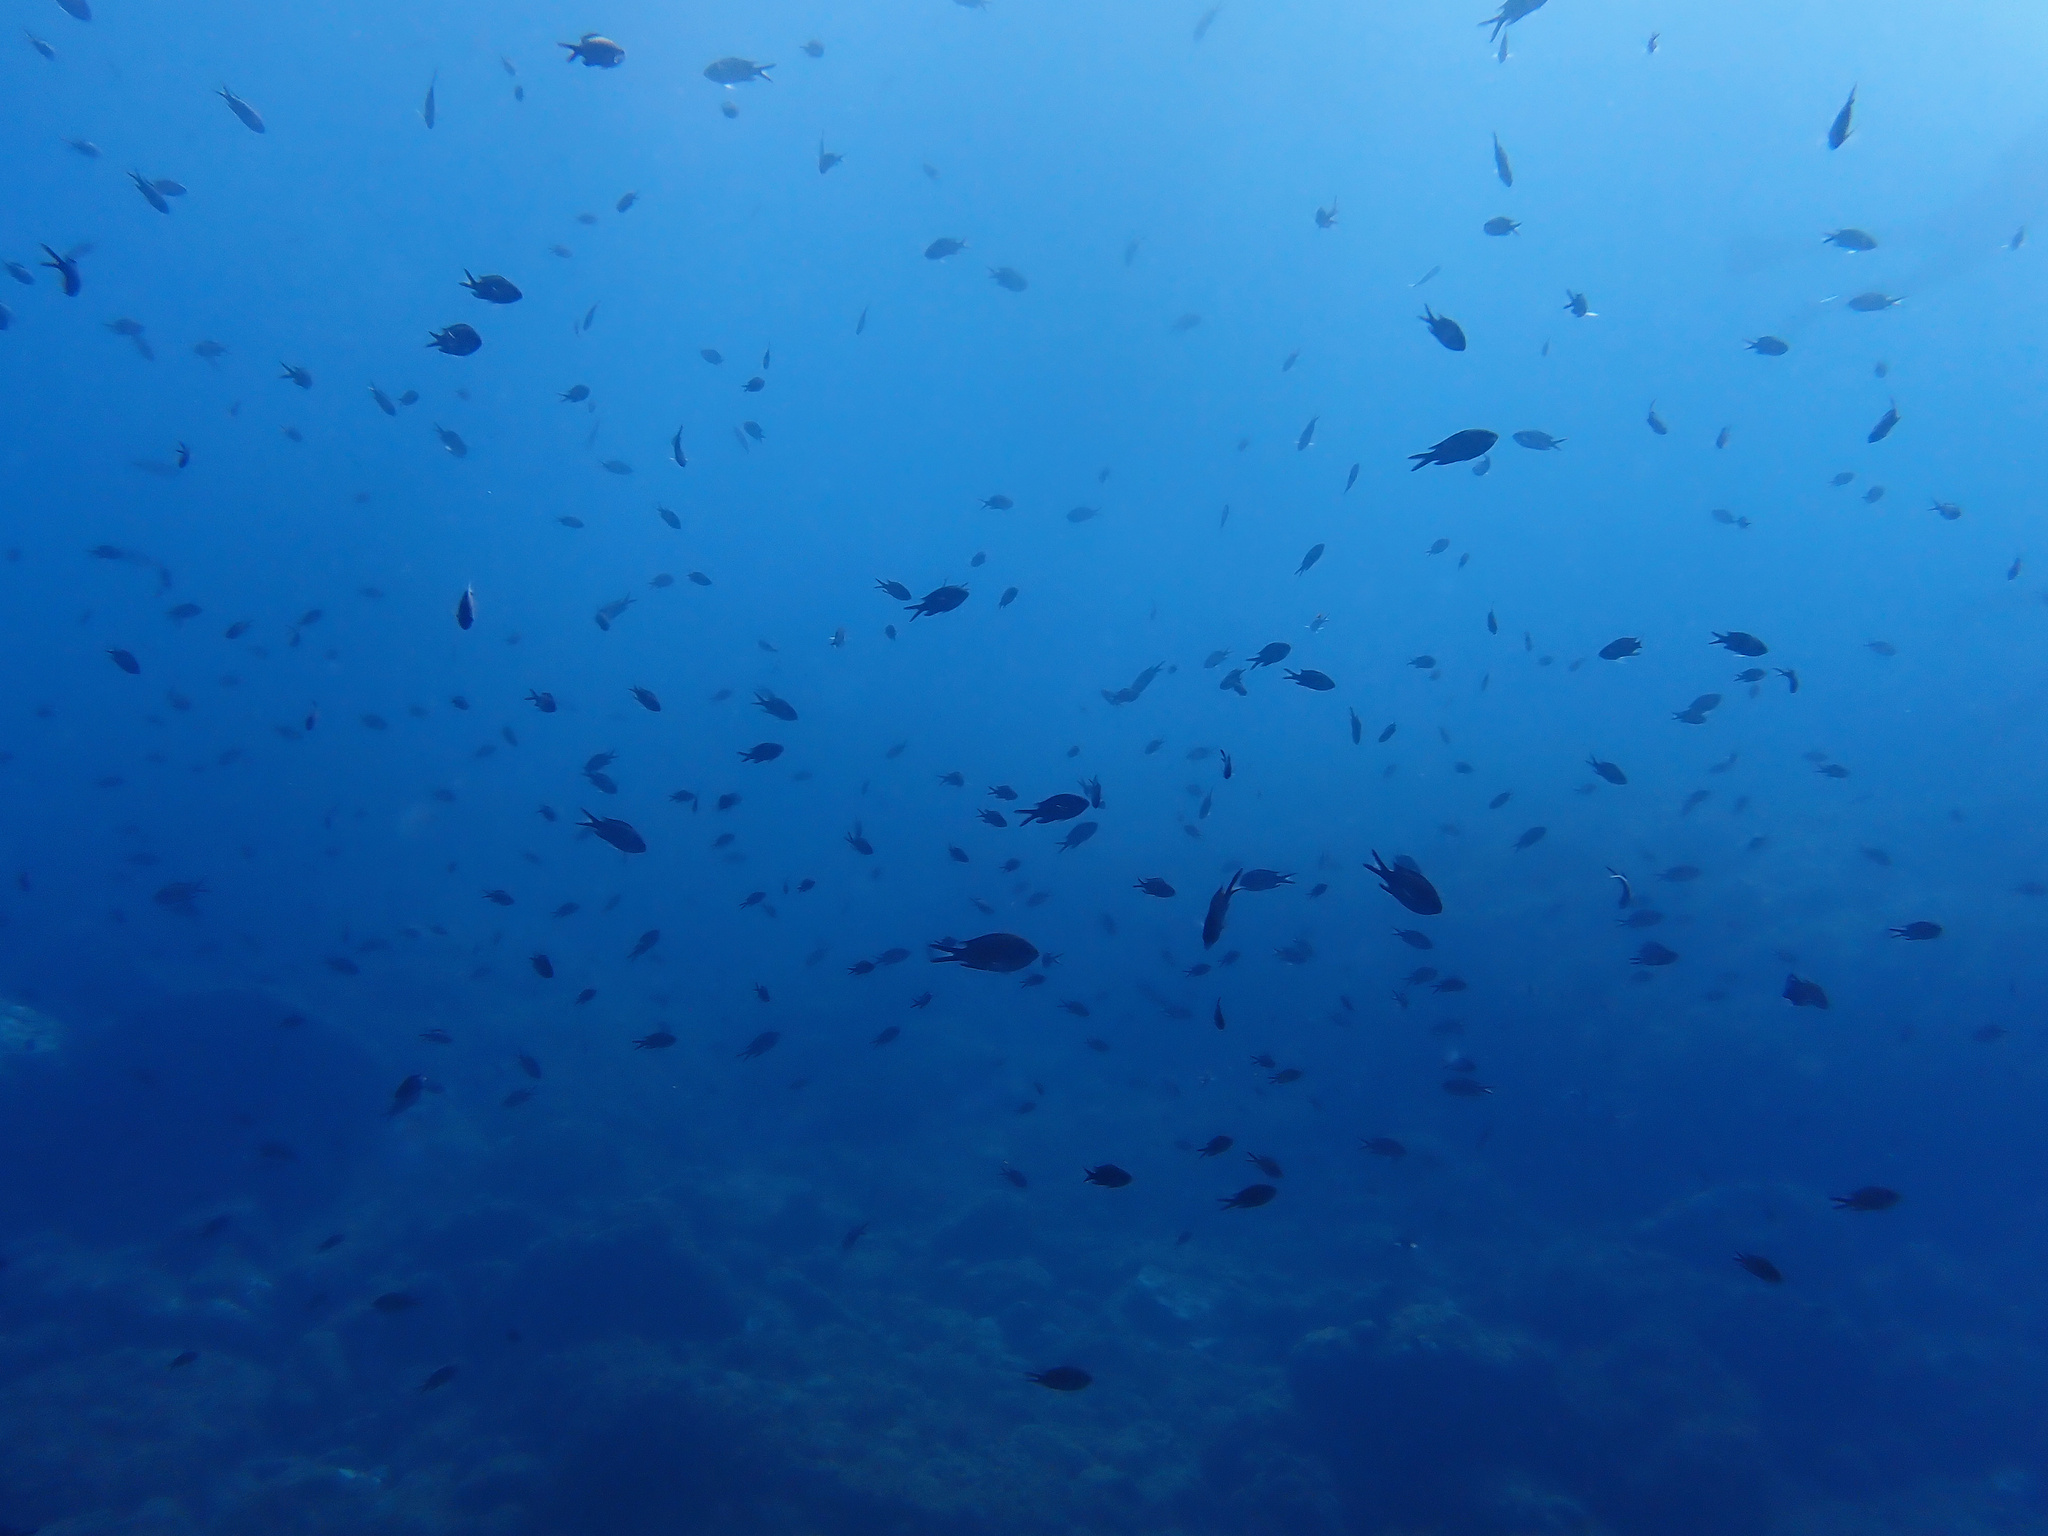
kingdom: Animalia
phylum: Chordata
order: Perciformes
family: Pomacentridae
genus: Chromis
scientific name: Chromis chromis
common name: Damselfish
